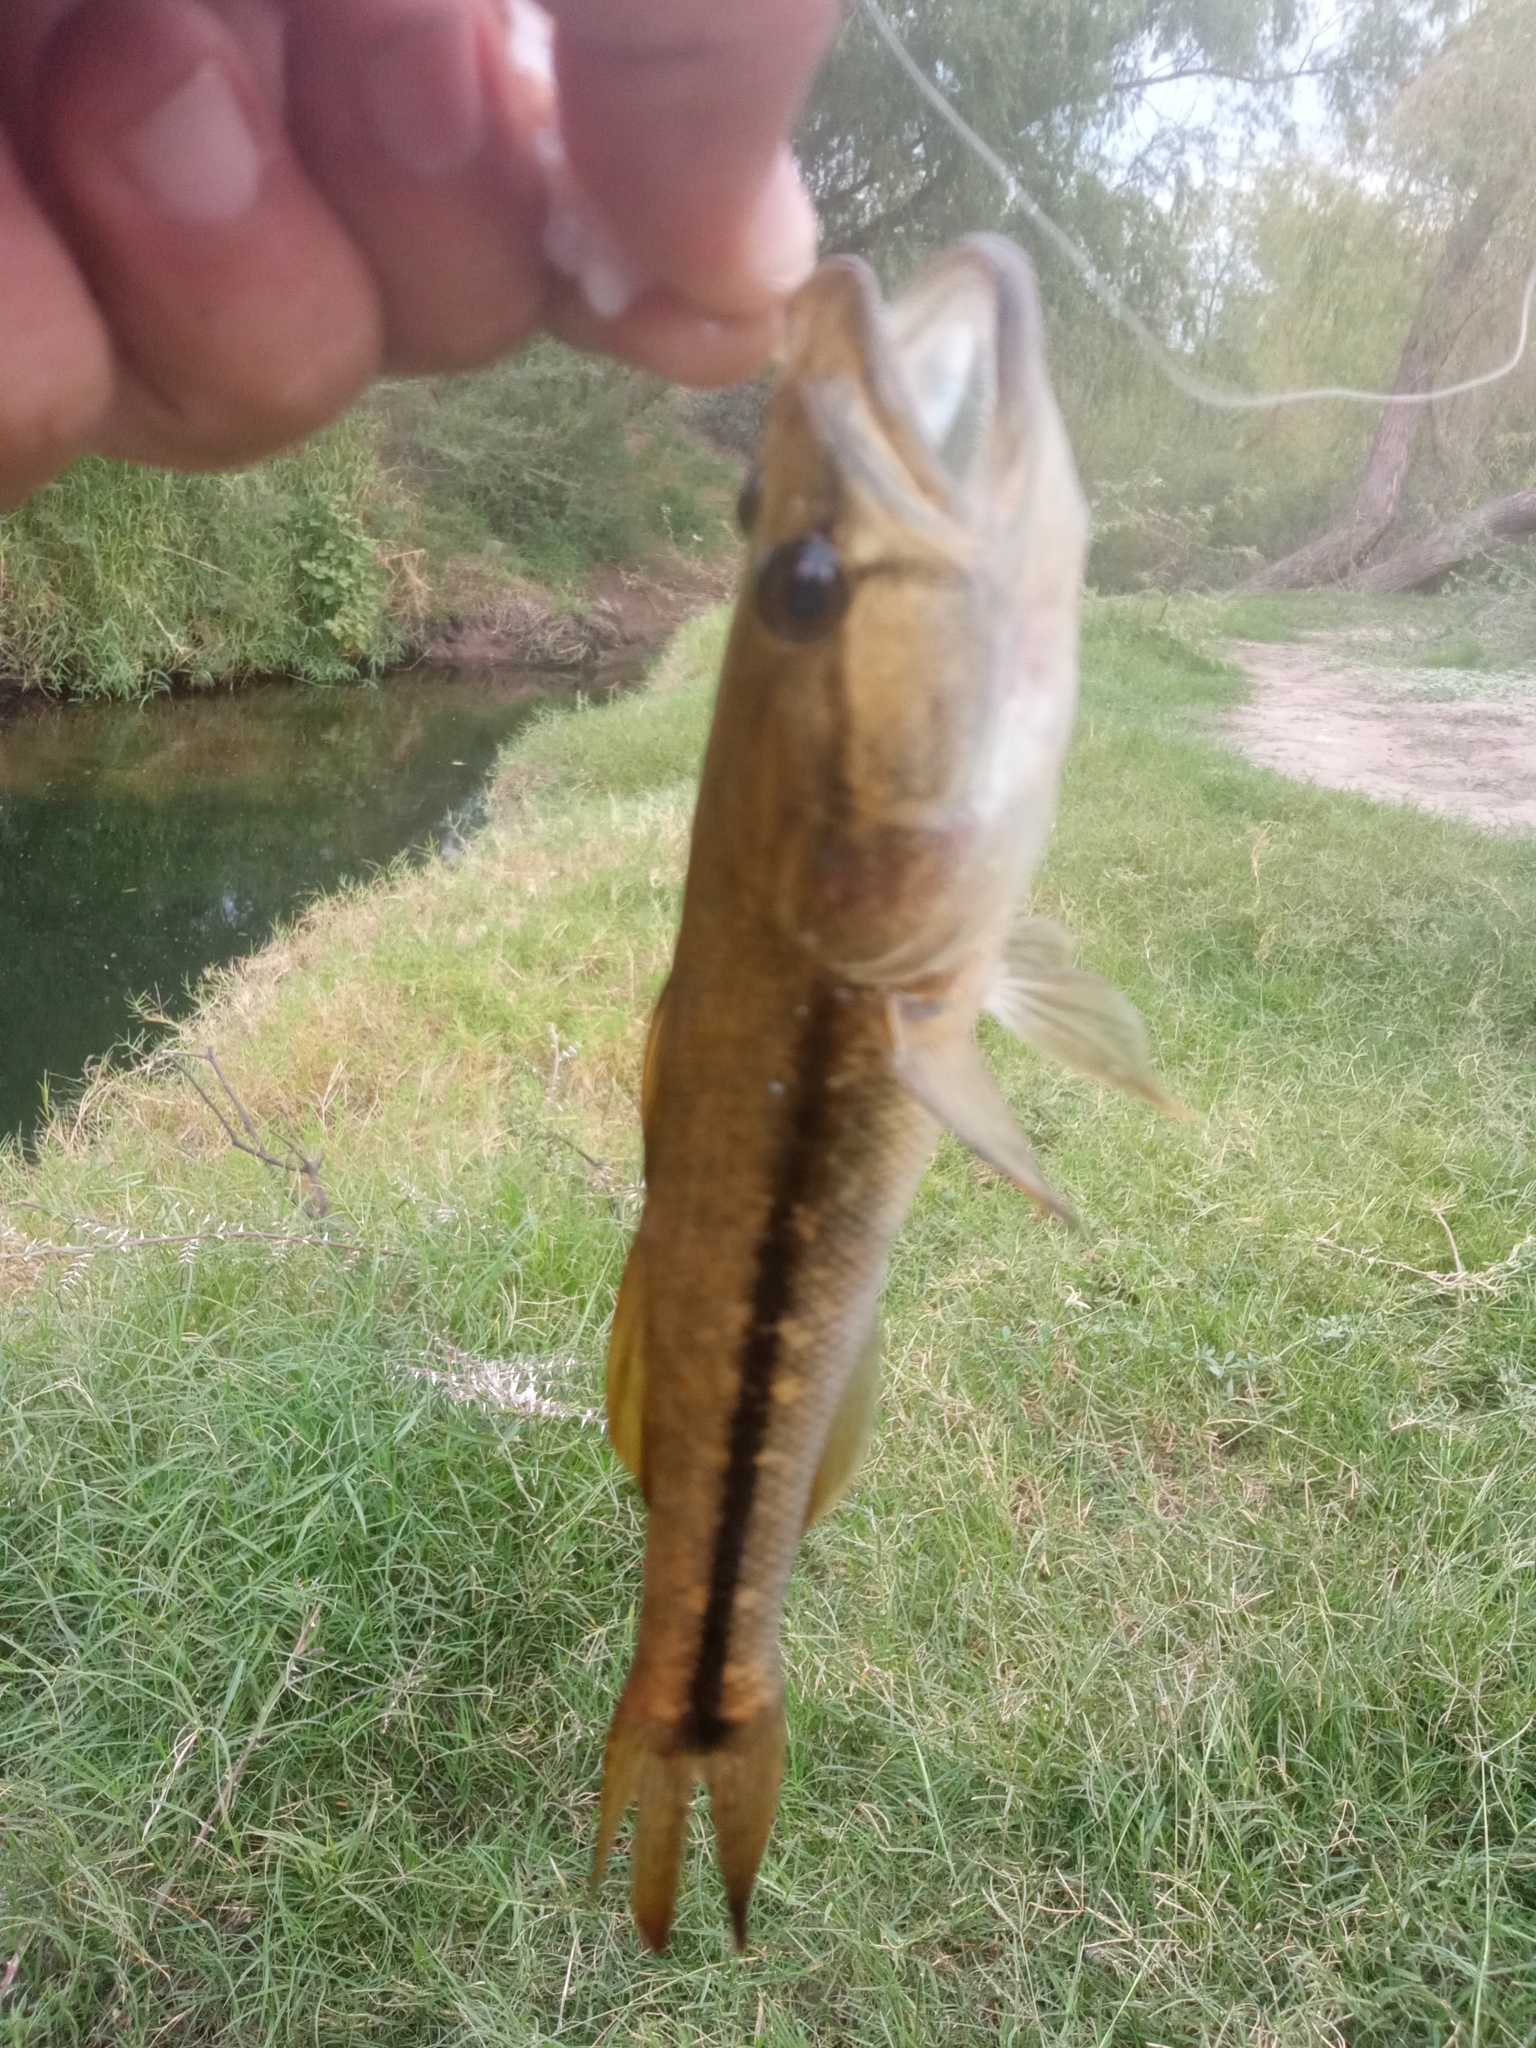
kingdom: Animalia
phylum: Chordata
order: Perciformes
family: Eleotridae
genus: Gobiomorus
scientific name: Gobiomorus maculatus
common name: Sleeper
